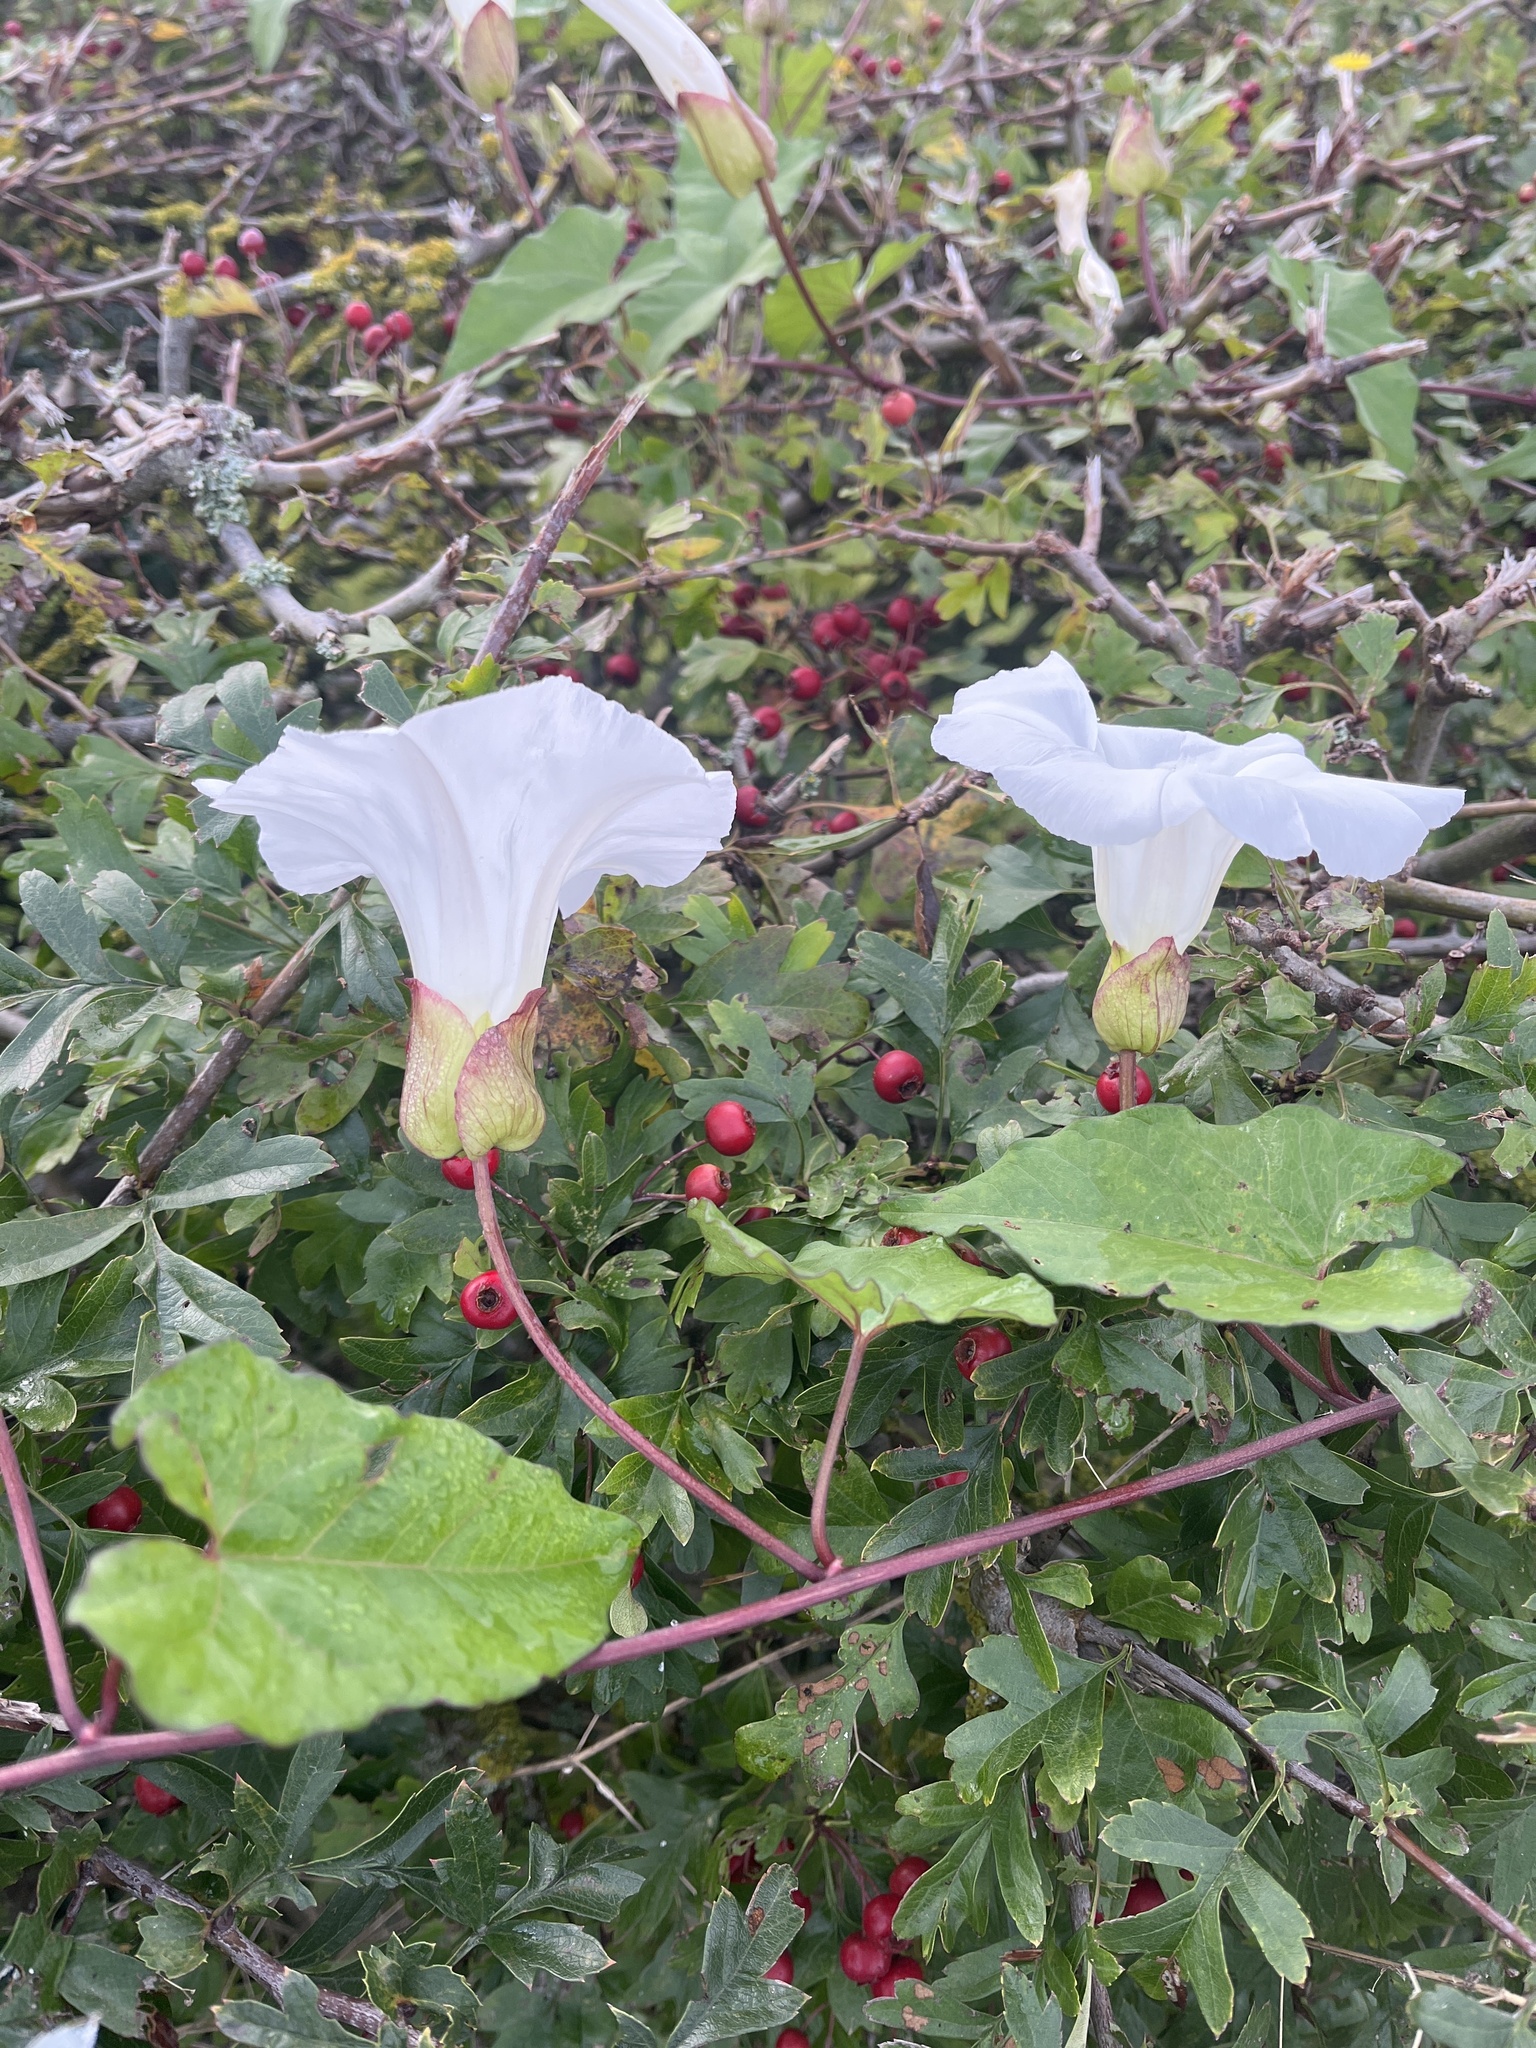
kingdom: Plantae
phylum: Tracheophyta
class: Magnoliopsida
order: Solanales
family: Convolvulaceae
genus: Calystegia
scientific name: Calystegia silvatica
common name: Large bindweed
